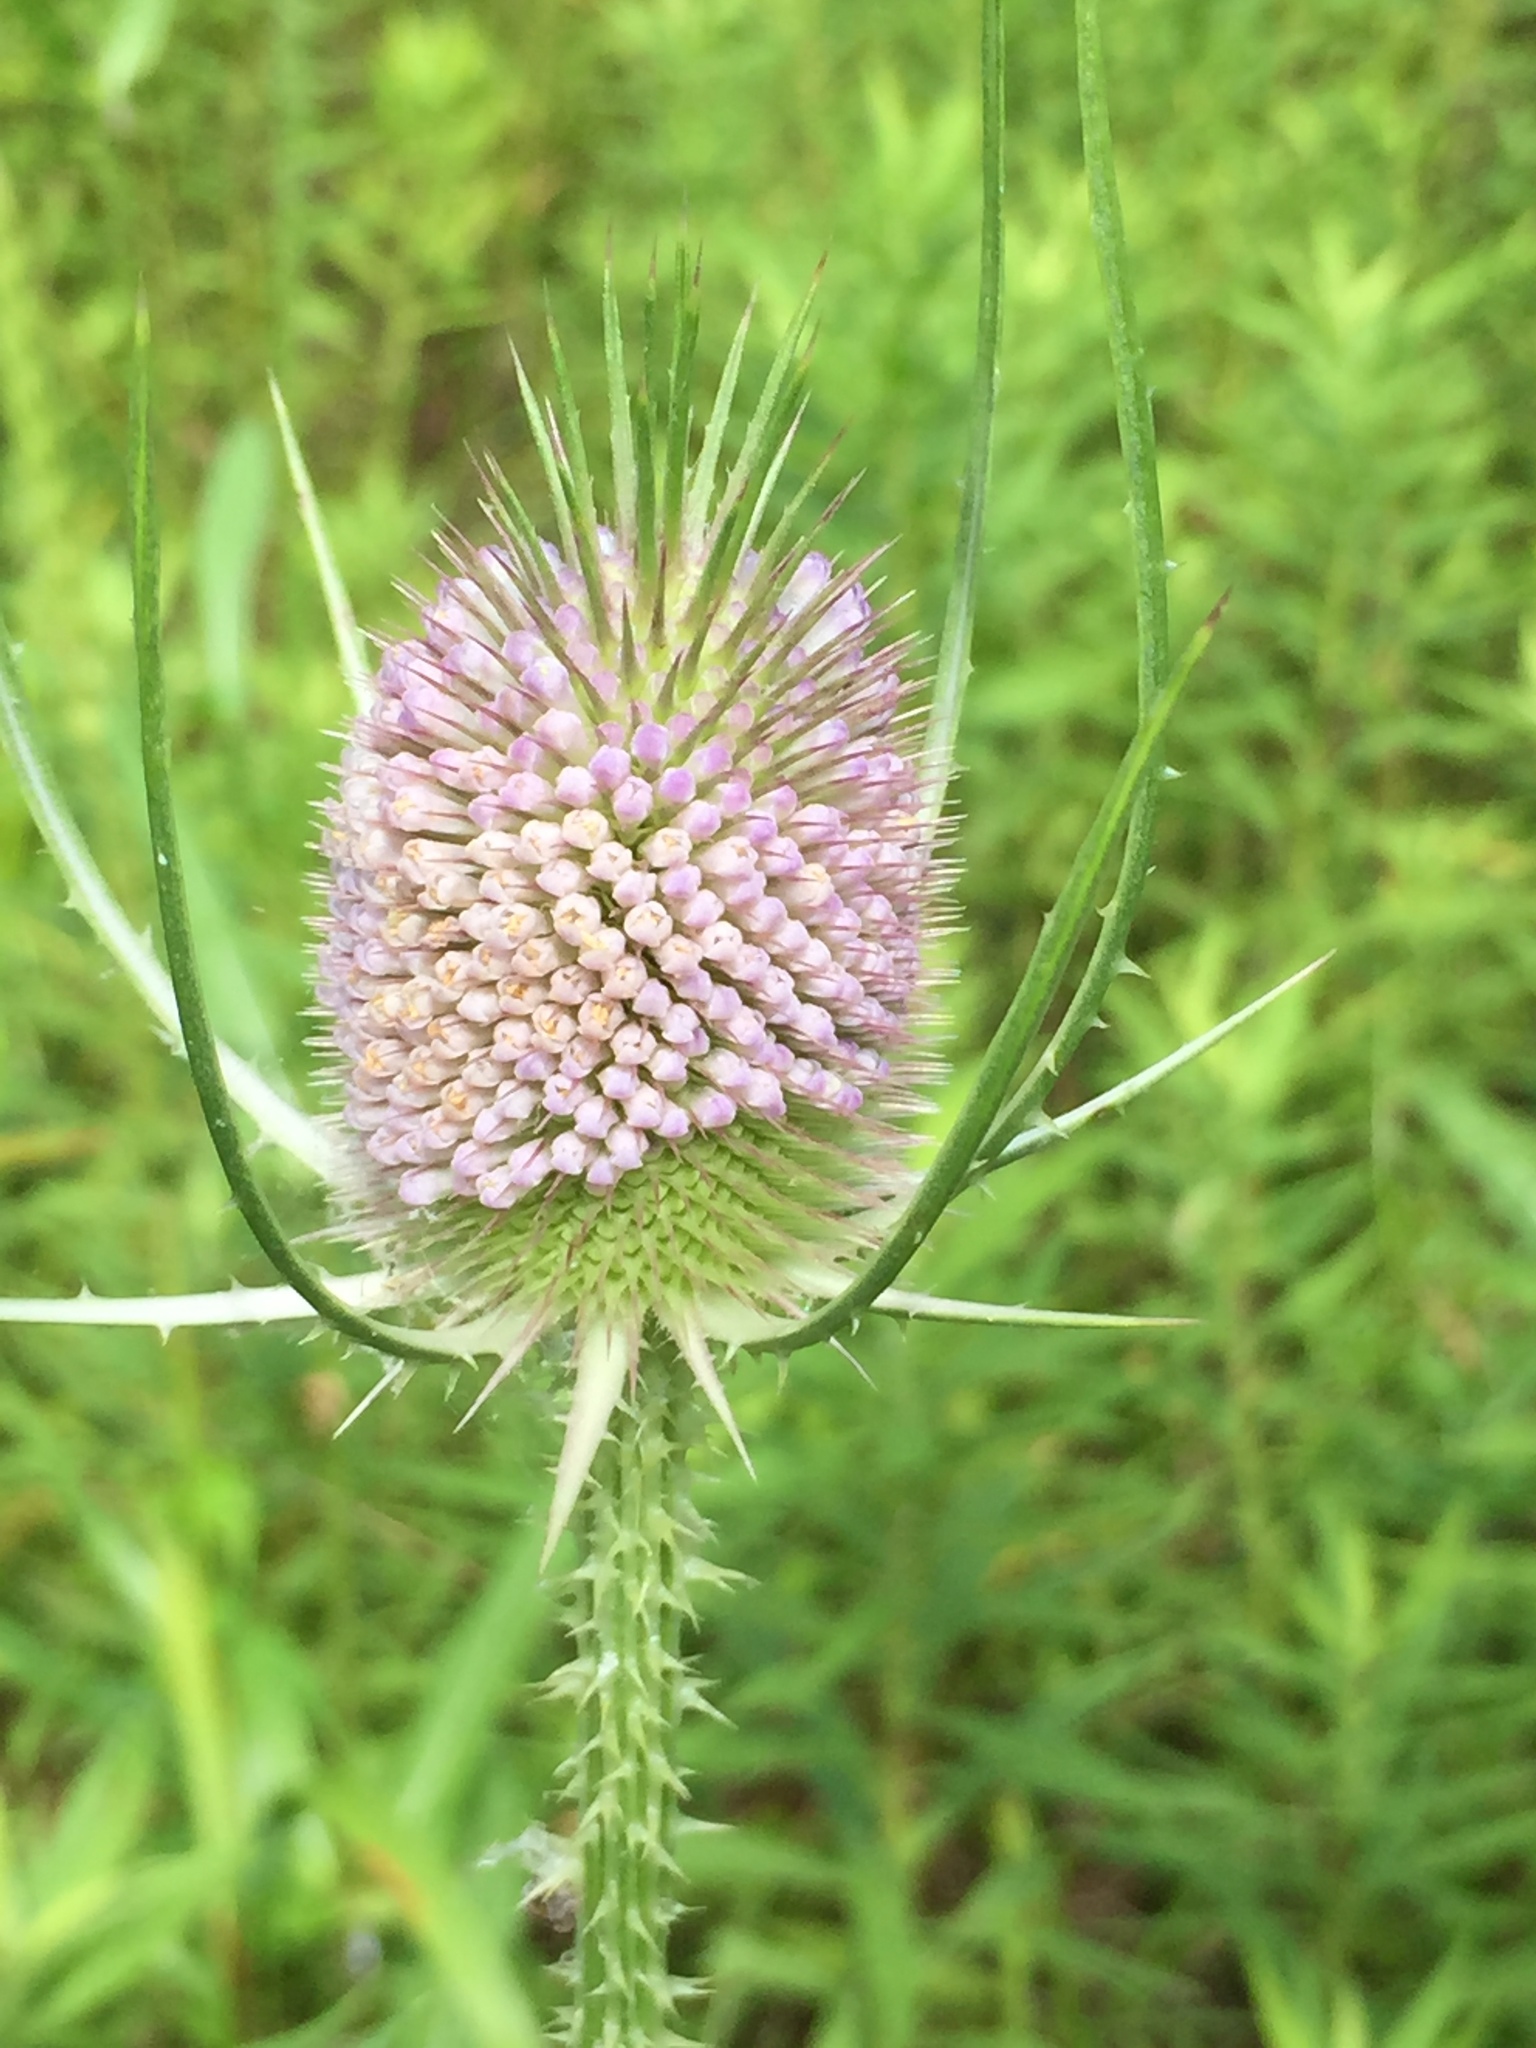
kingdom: Plantae
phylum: Tracheophyta
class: Magnoliopsida
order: Dipsacales
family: Caprifoliaceae
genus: Dipsacus
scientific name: Dipsacus fullonum
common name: Teasel
